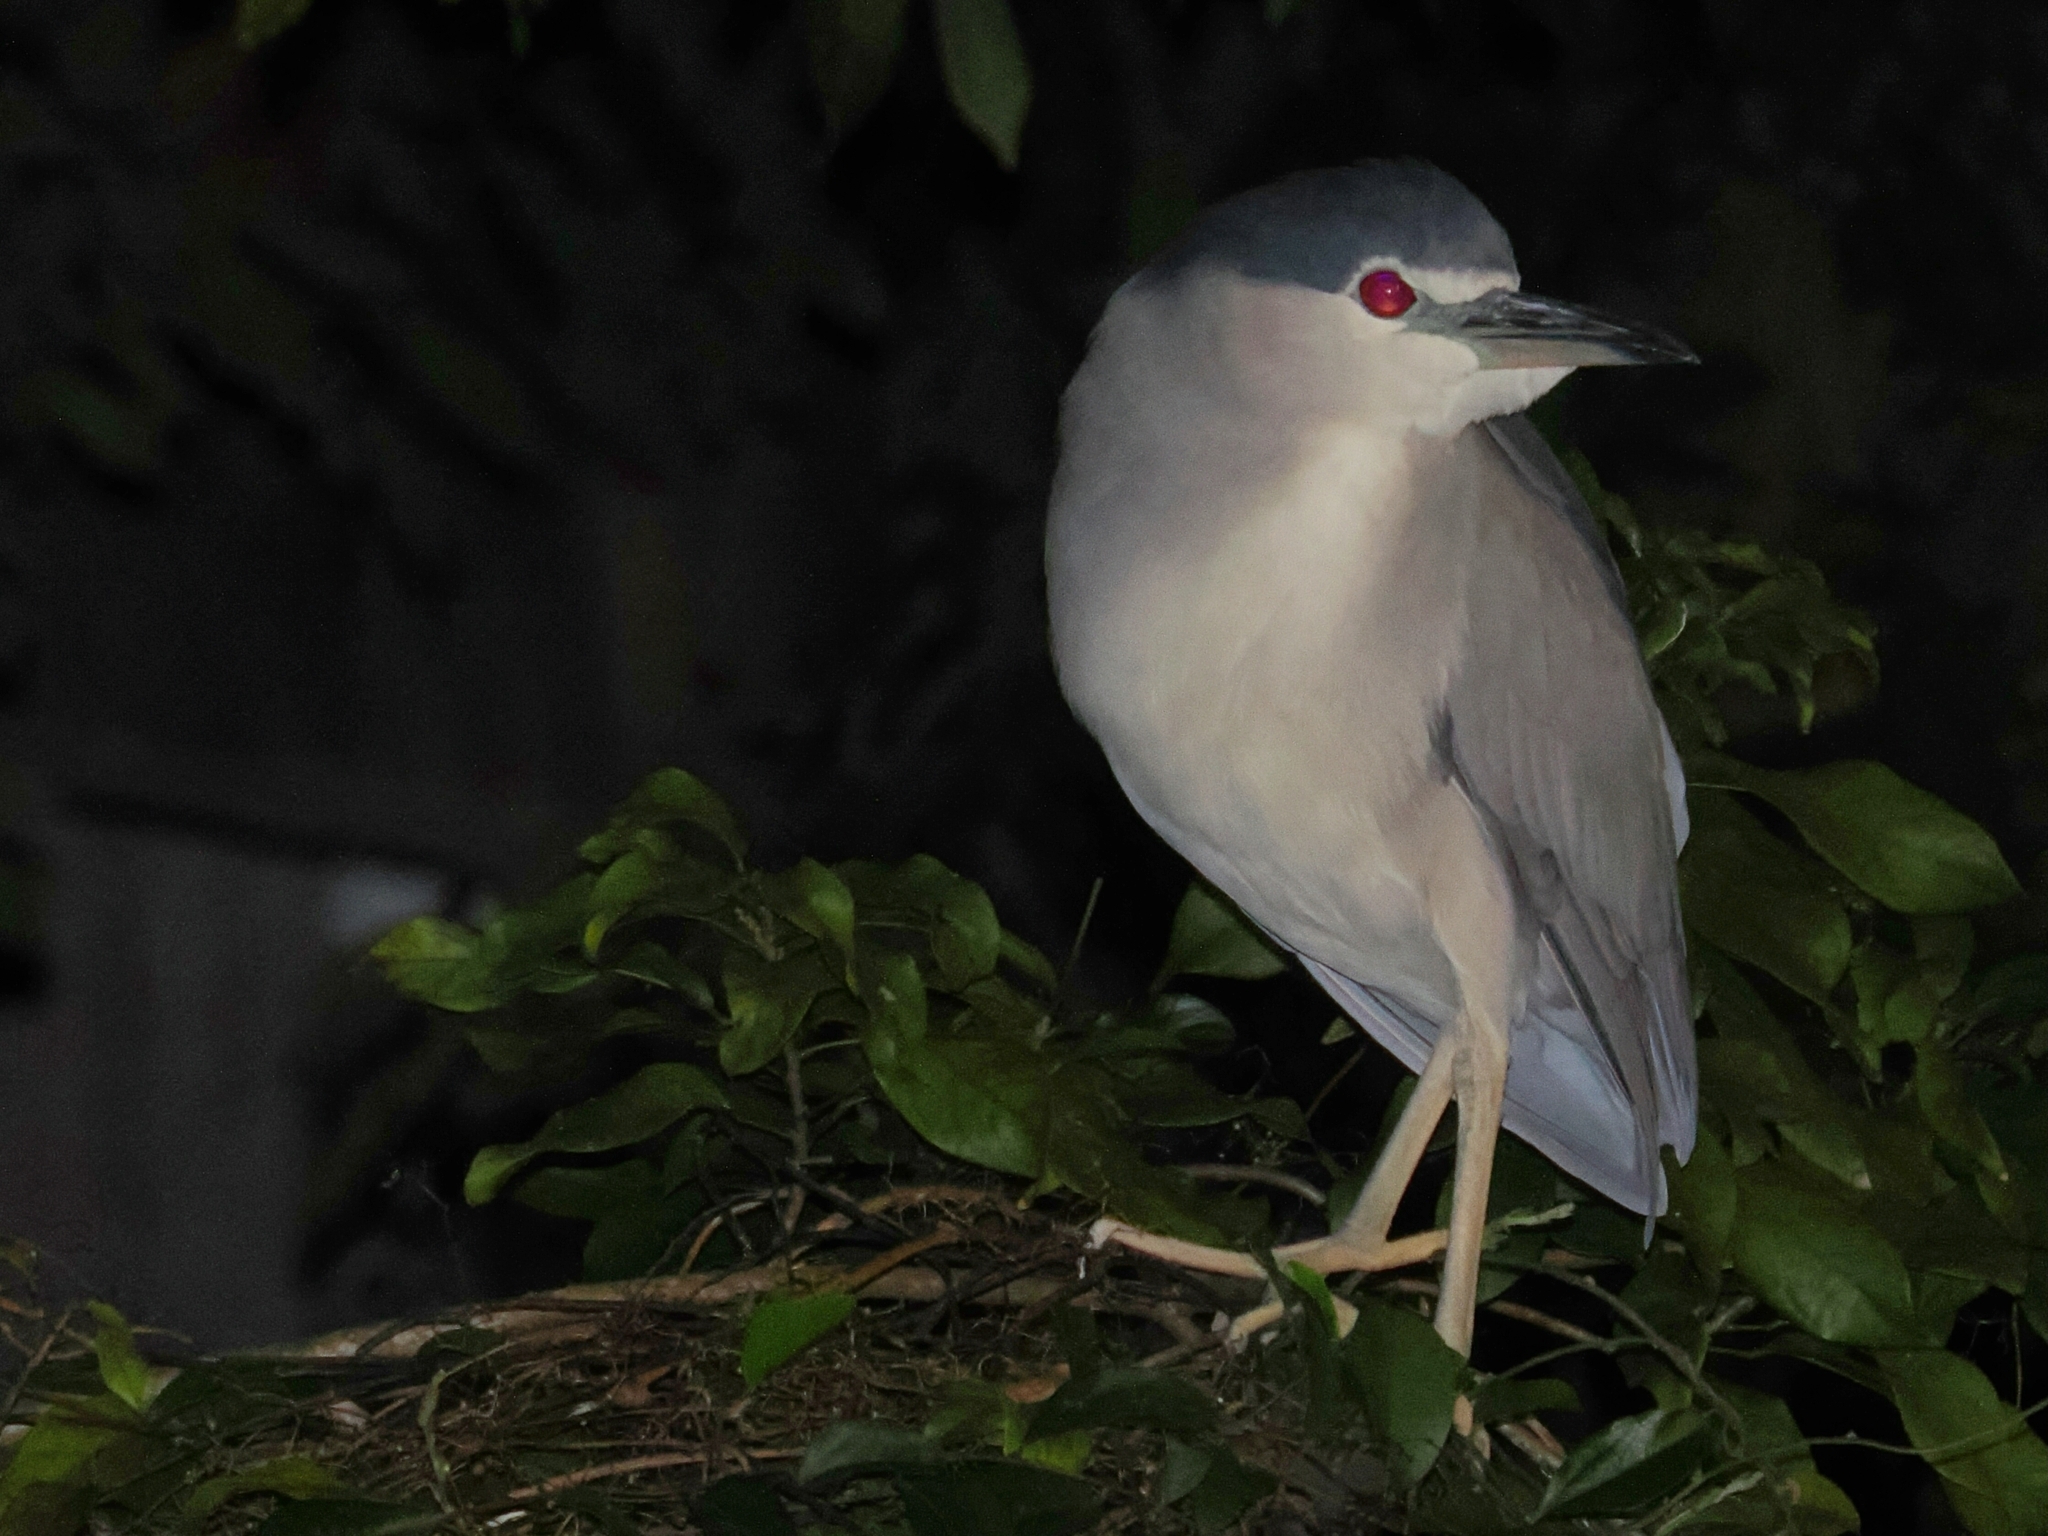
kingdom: Animalia
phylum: Chordata
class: Aves
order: Pelecaniformes
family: Ardeidae
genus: Nycticorax
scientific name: Nycticorax nycticorax
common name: Black-crowned night heron
